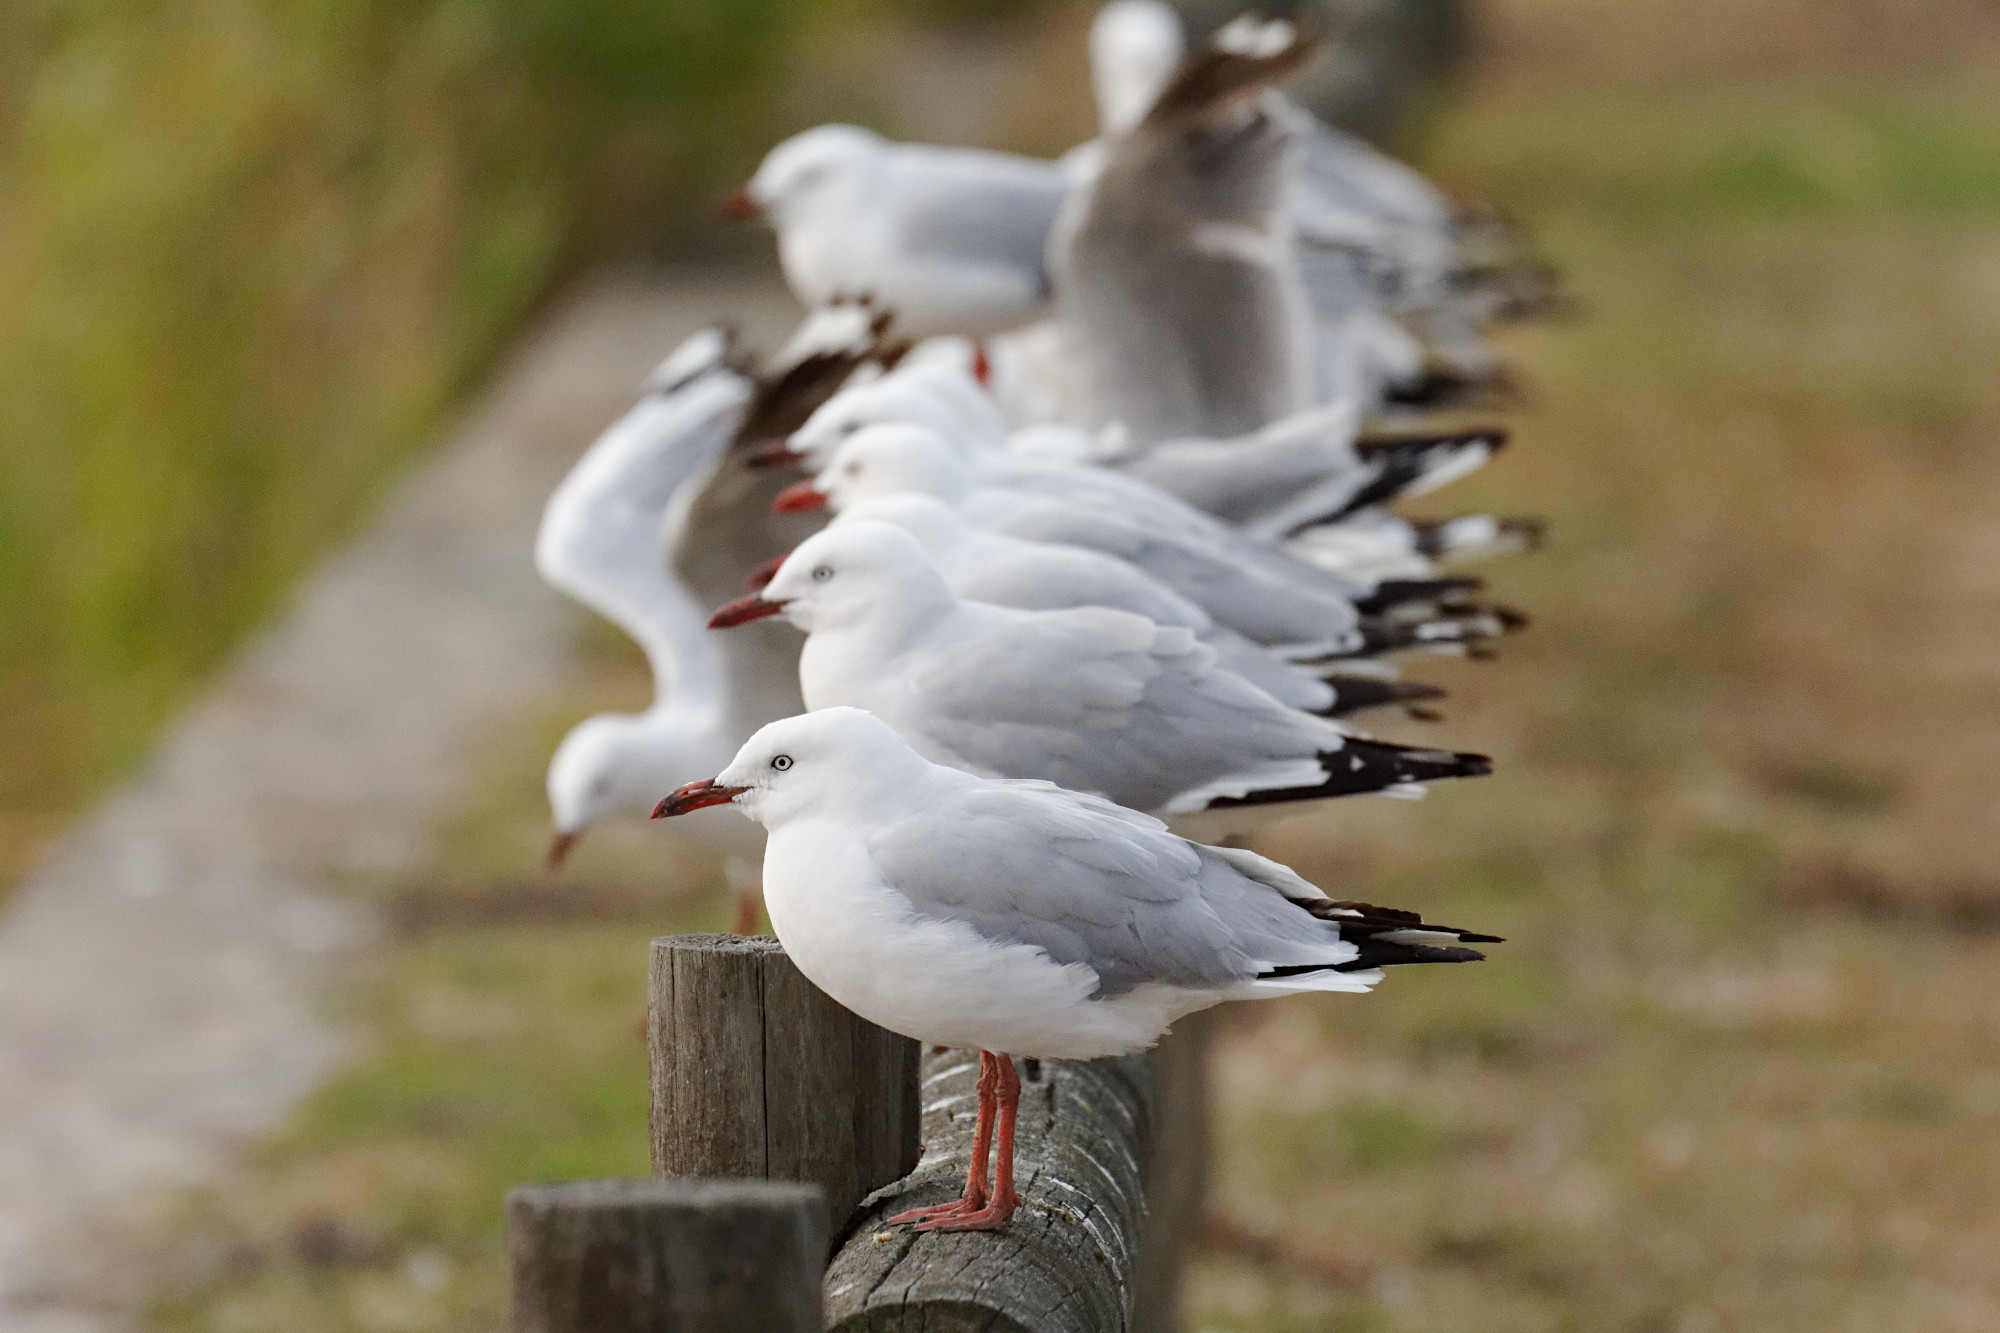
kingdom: Animalia
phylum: Chordata
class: Aves
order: Charadriiformes
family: Laridae
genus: Chroicocephalus
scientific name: Chroicocephalus novaehollandiae
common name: Silver gull
